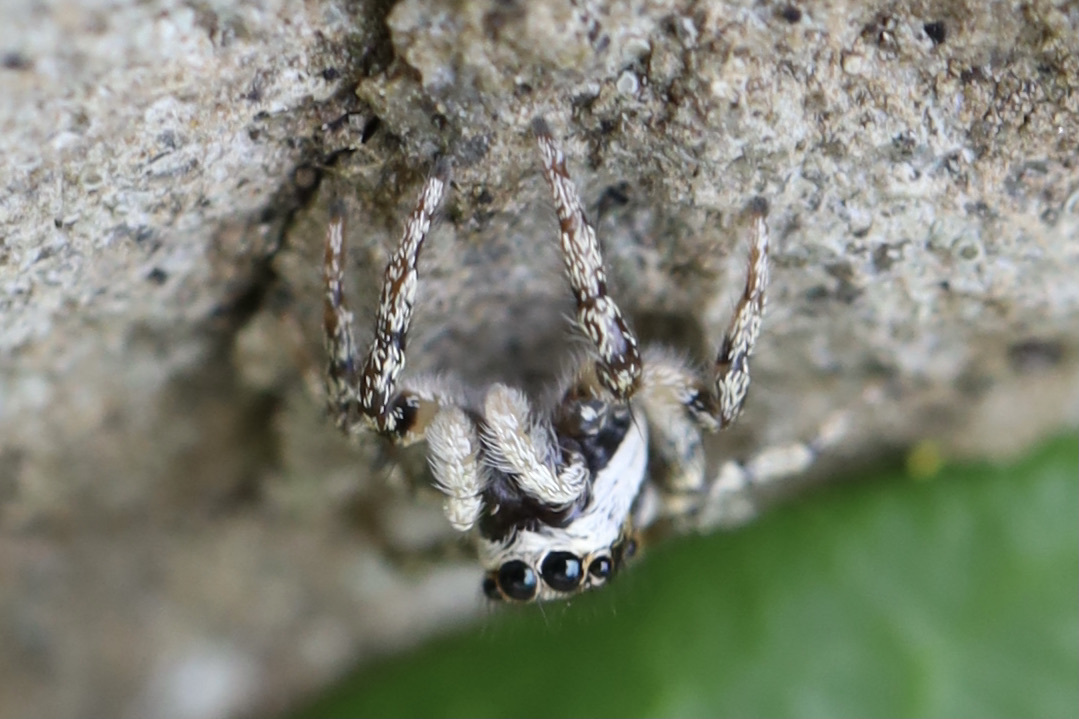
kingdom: Animalia
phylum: Arthropoda
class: Arachnida
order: Araneae
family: Salticidae
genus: Salticus
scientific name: Salticus scenicus
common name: Zebra jumper
